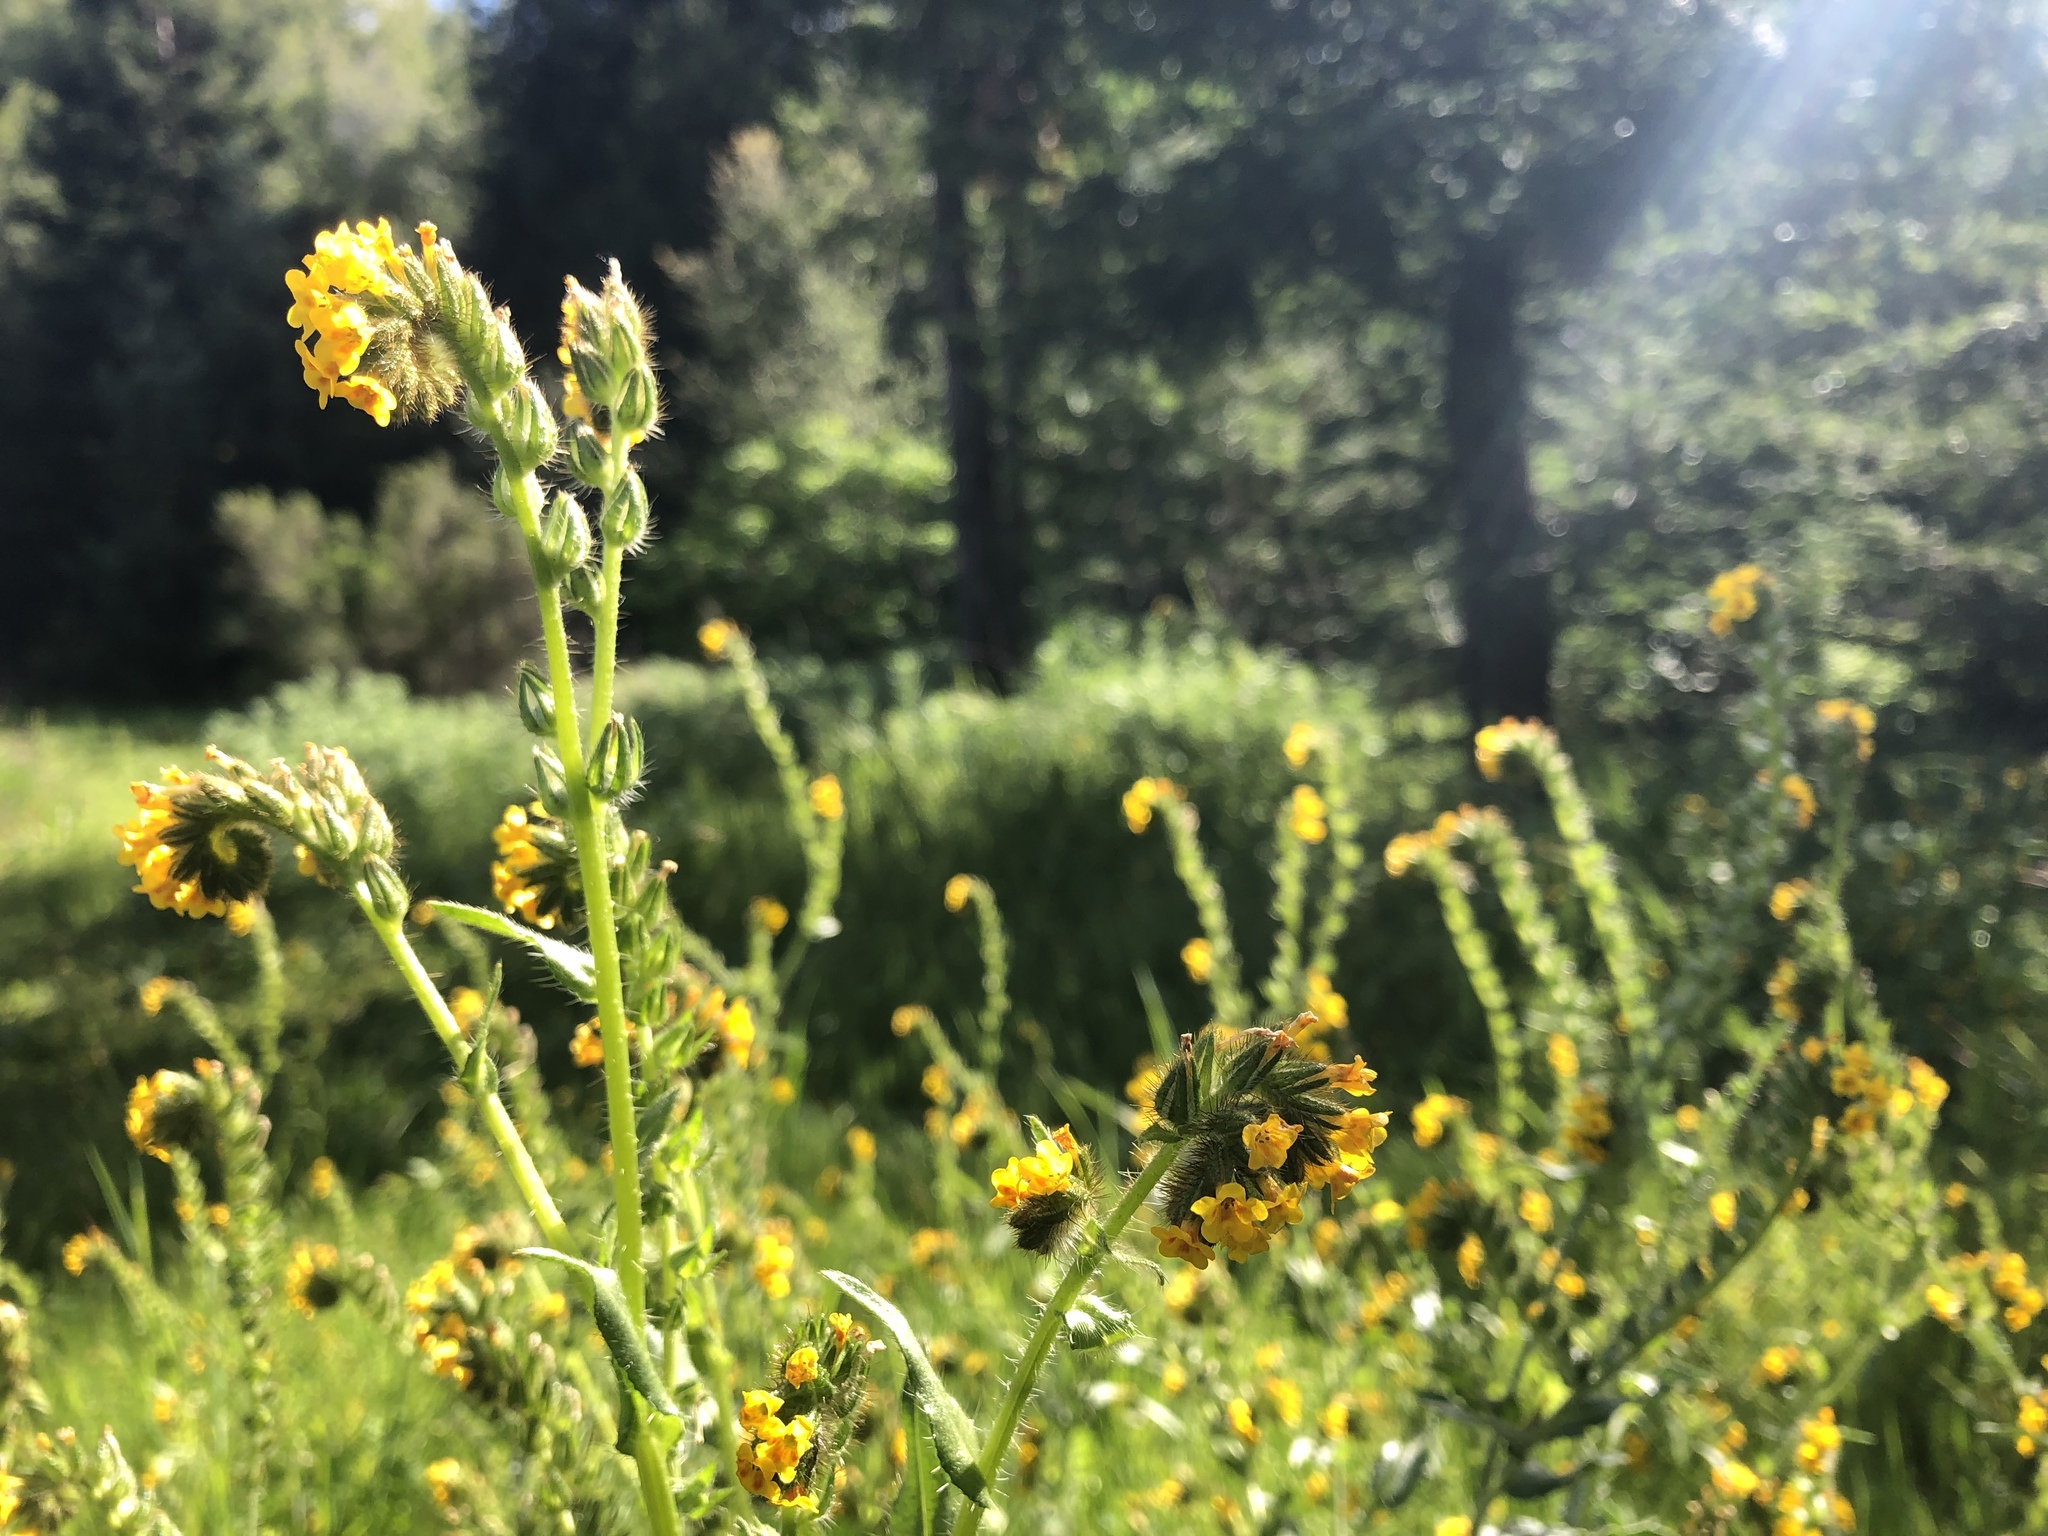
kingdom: Plantae
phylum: Tracheophyta
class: Magnoliopsida
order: Boraginales
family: Boraginaceae
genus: Amsinckia
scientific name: Amsinckia menziesii
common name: Menzies' fiddleneck
